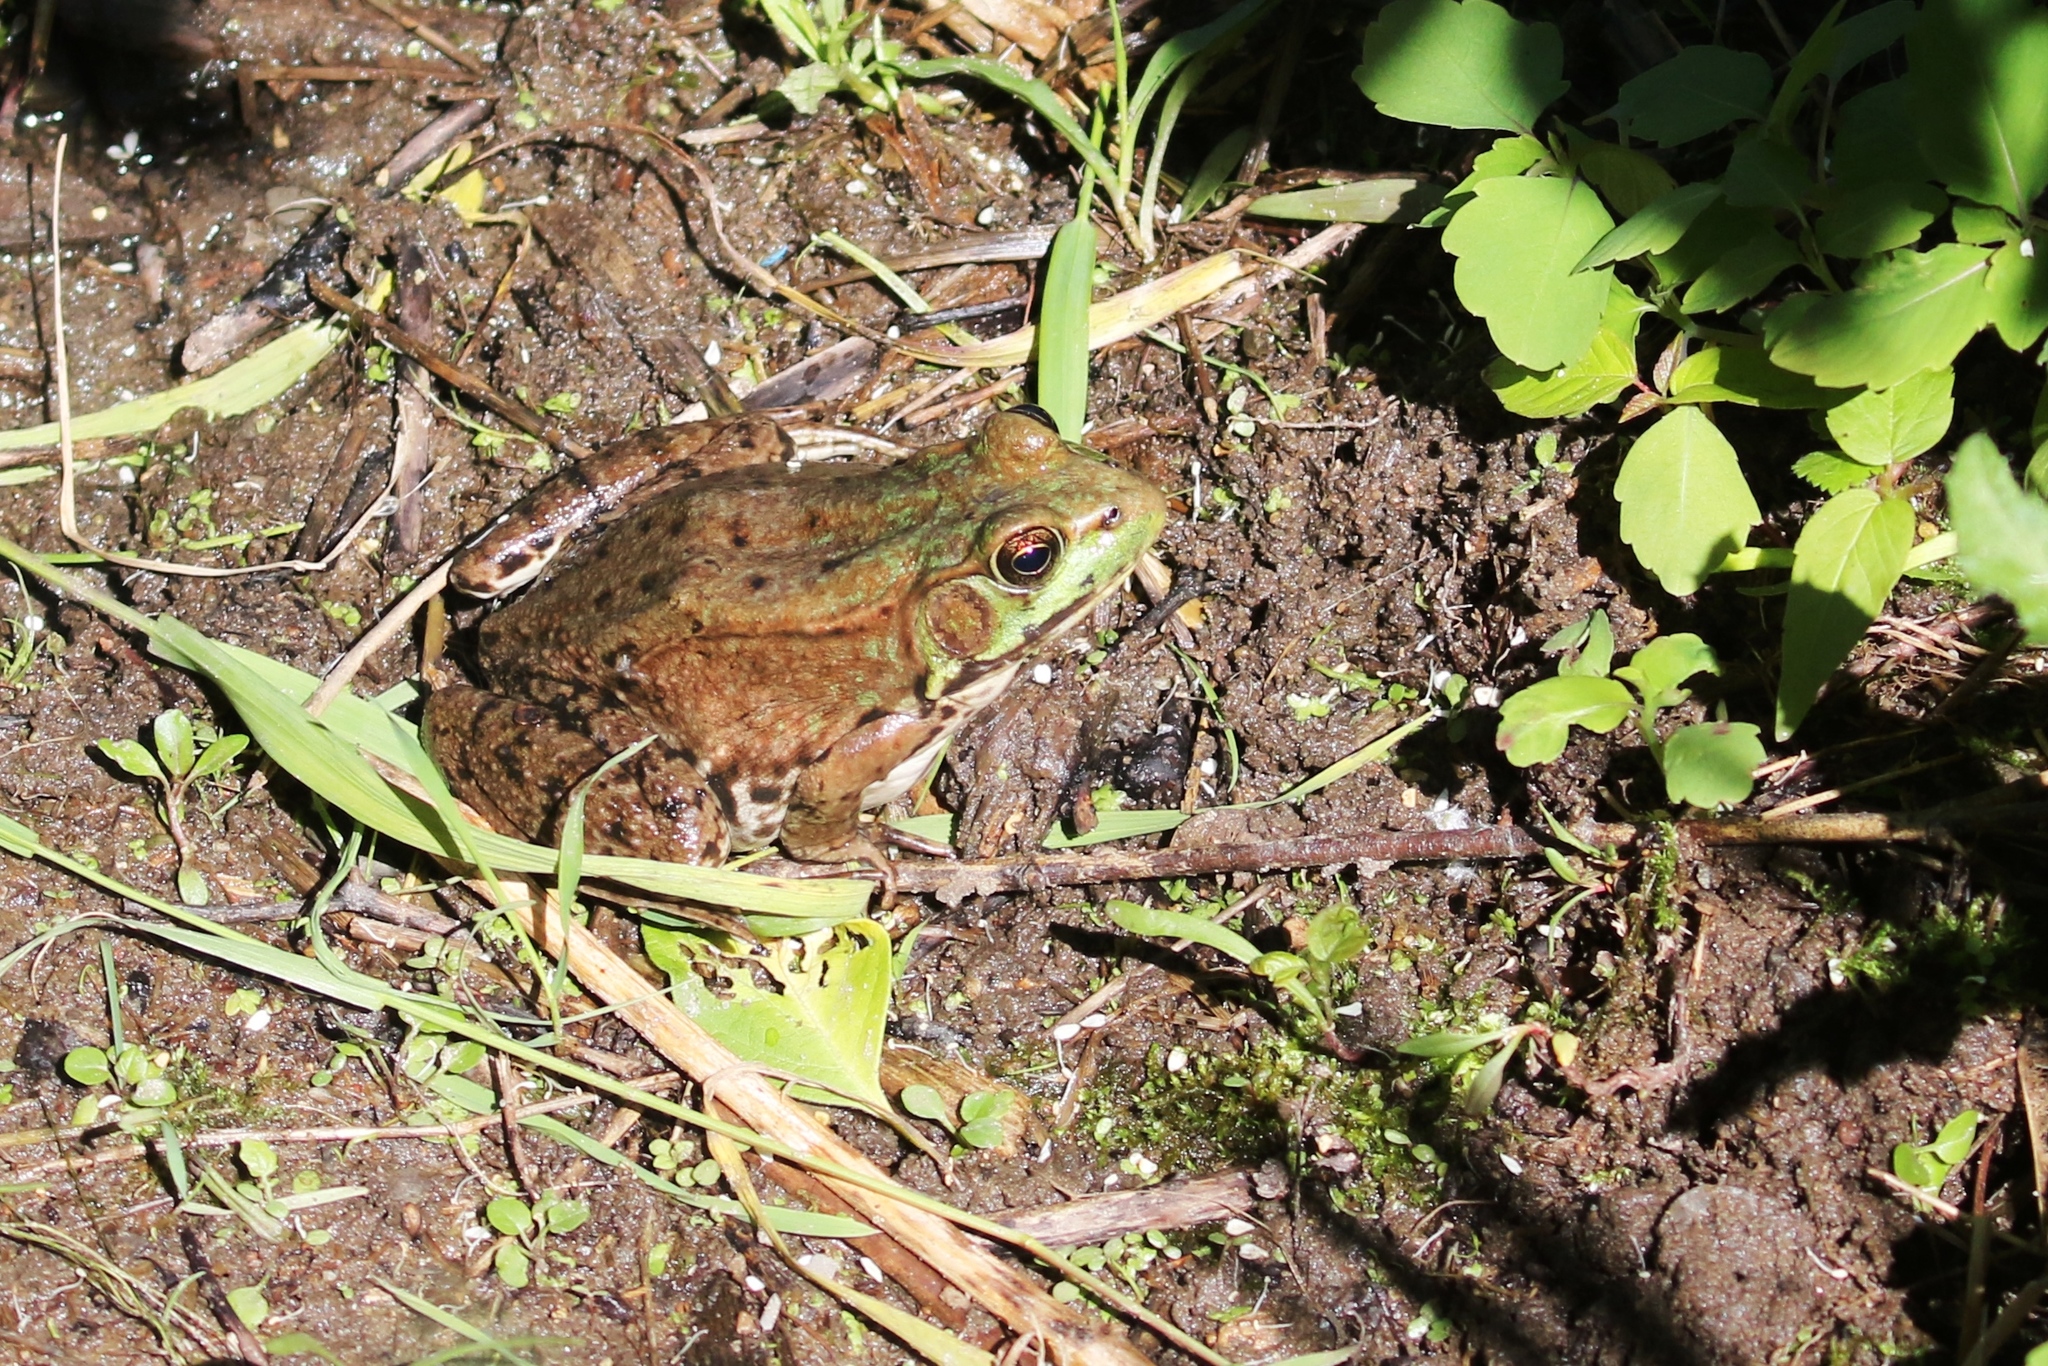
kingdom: Animalia
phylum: Chordata
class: Amphibia
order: Anura
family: Ranidae
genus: Lithobates
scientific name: Lithobates clamitans
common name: Green frog
